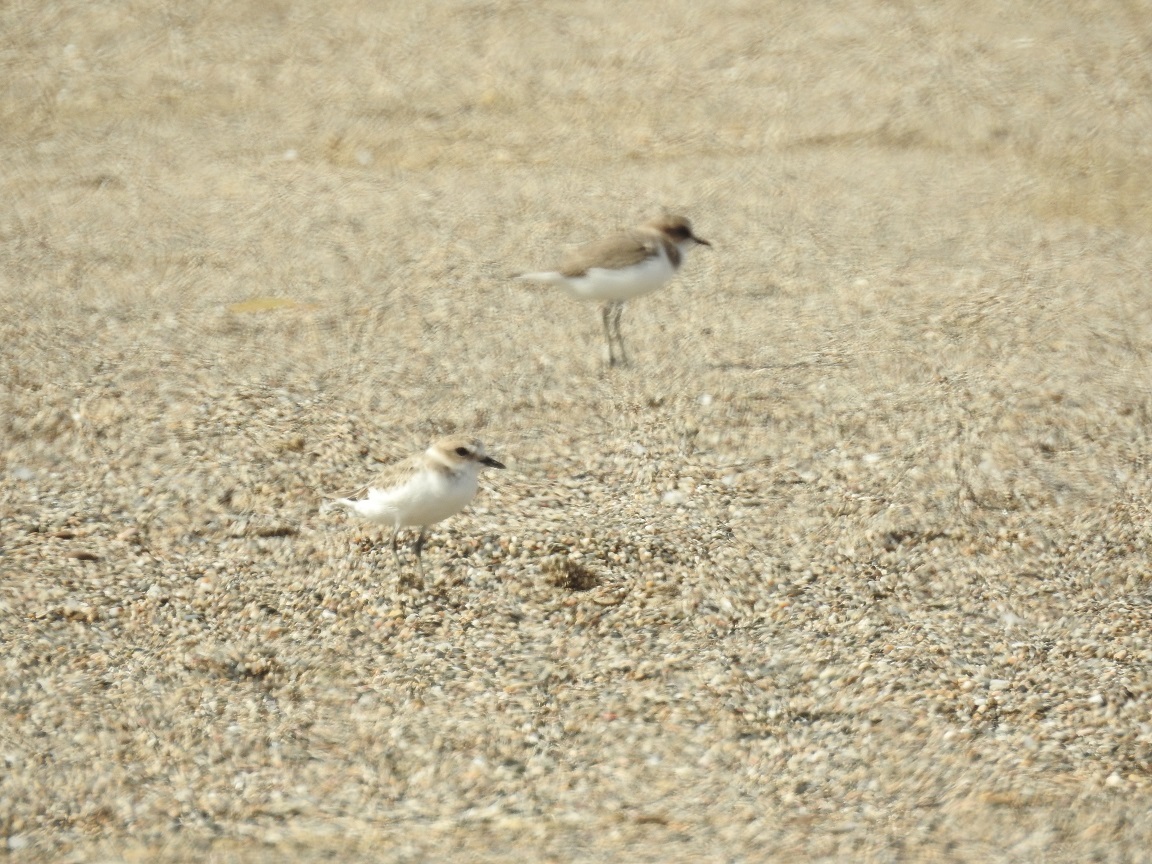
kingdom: Animalia
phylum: Chordata
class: Aves
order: Charadriiformes
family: Charadriidae
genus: Charadrius
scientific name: Charadrius alexandrinus
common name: Kentish plover
